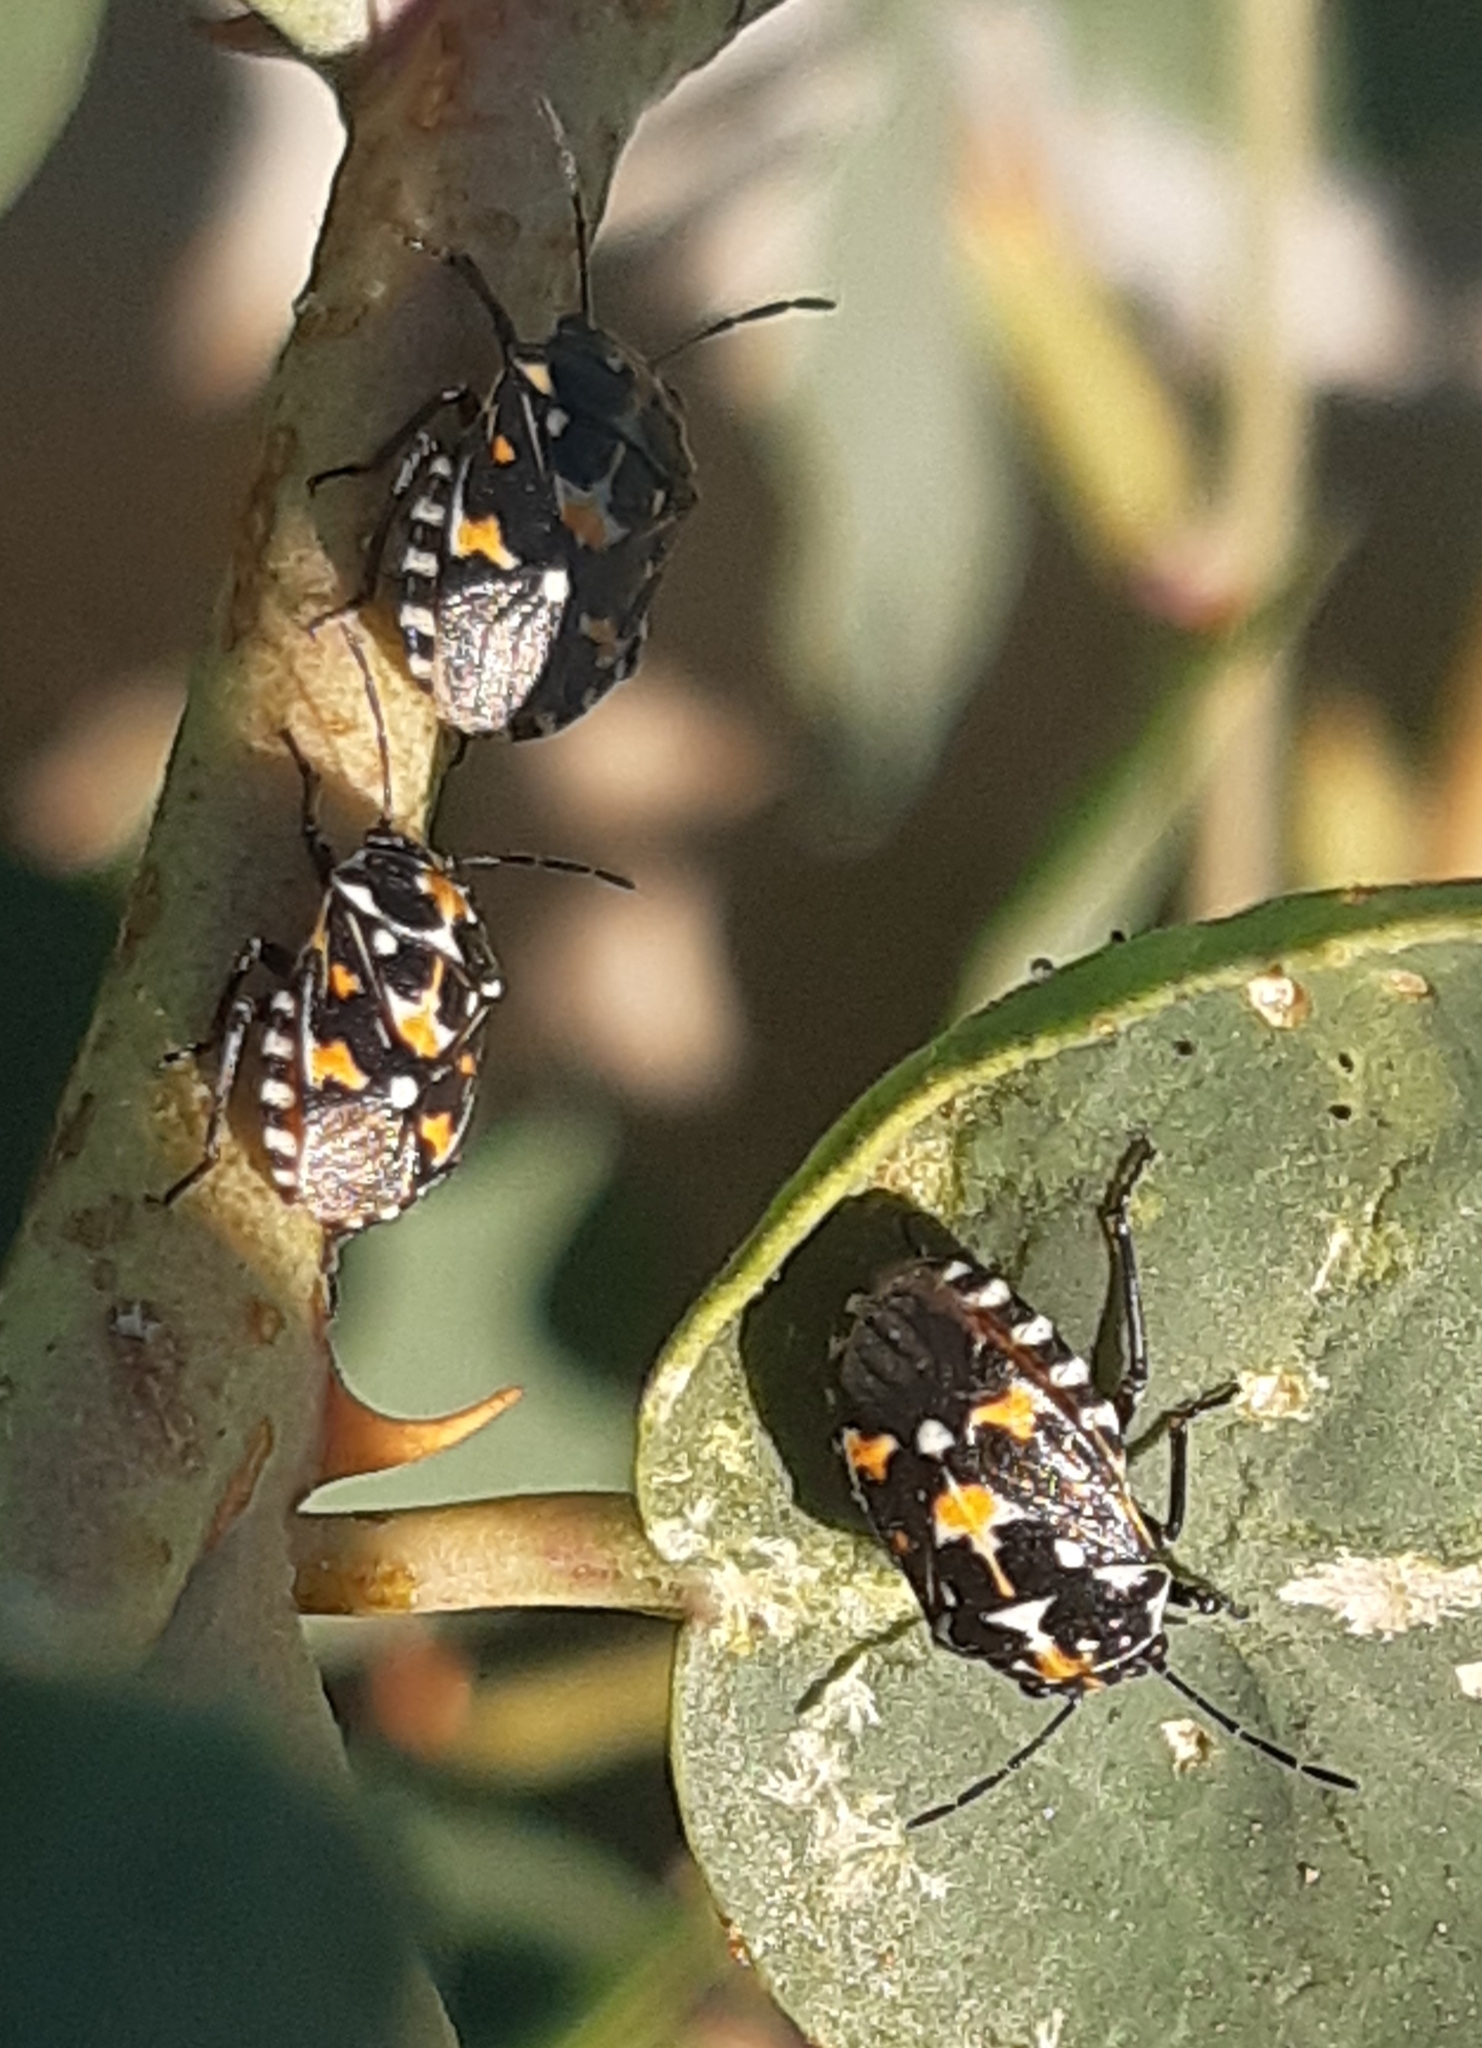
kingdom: Animalia
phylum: Arthropoda
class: Insecta
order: Hemiptera
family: Pentatomidae
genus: Stenozygum
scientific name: Stenozygum coloratum
